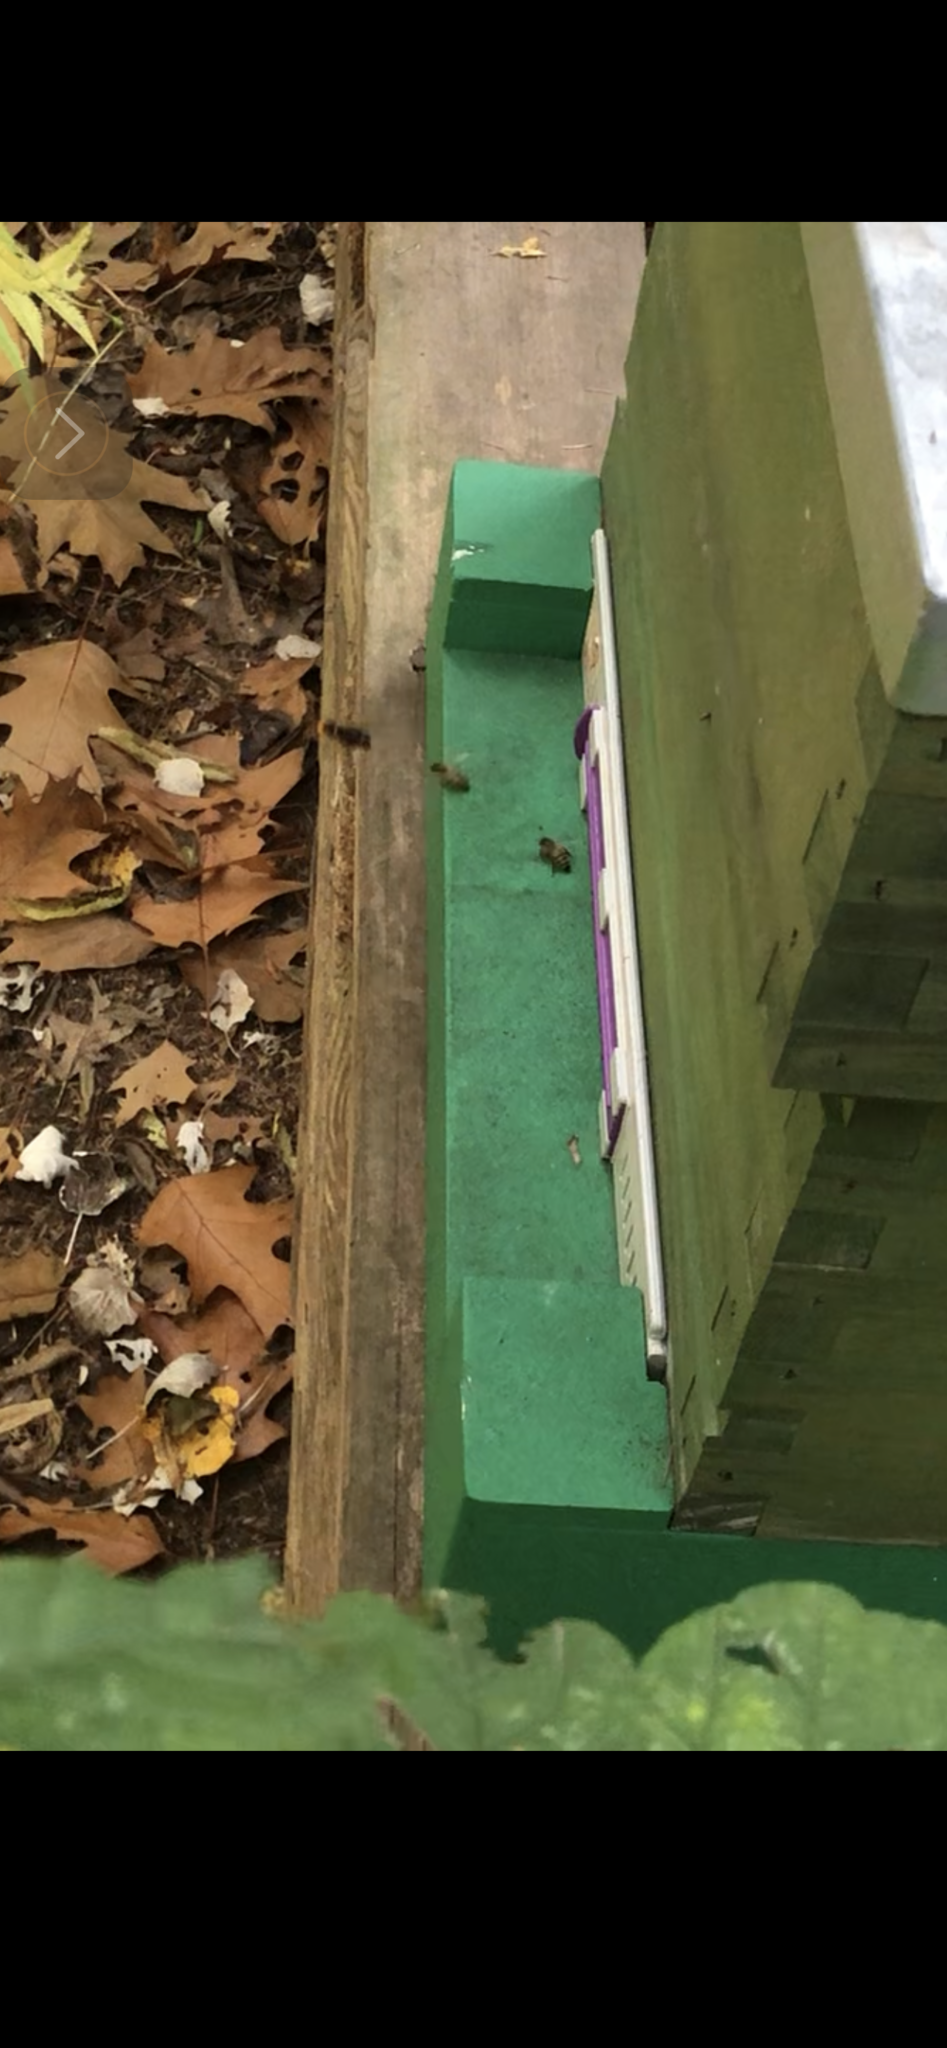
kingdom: Animalia
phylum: Arthropoda
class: Insecta
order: Hymenoptera
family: Vespidae
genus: Vespa
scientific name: Vespa velutina
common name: Asian hornet
